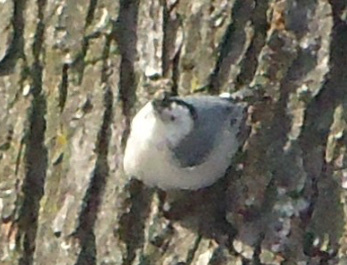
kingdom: Animalia
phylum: Chordata
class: Aves
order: Passeriformes
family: Sittidae
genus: Sitta
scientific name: Sitta carolinensis
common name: White-breasted nuthatch
